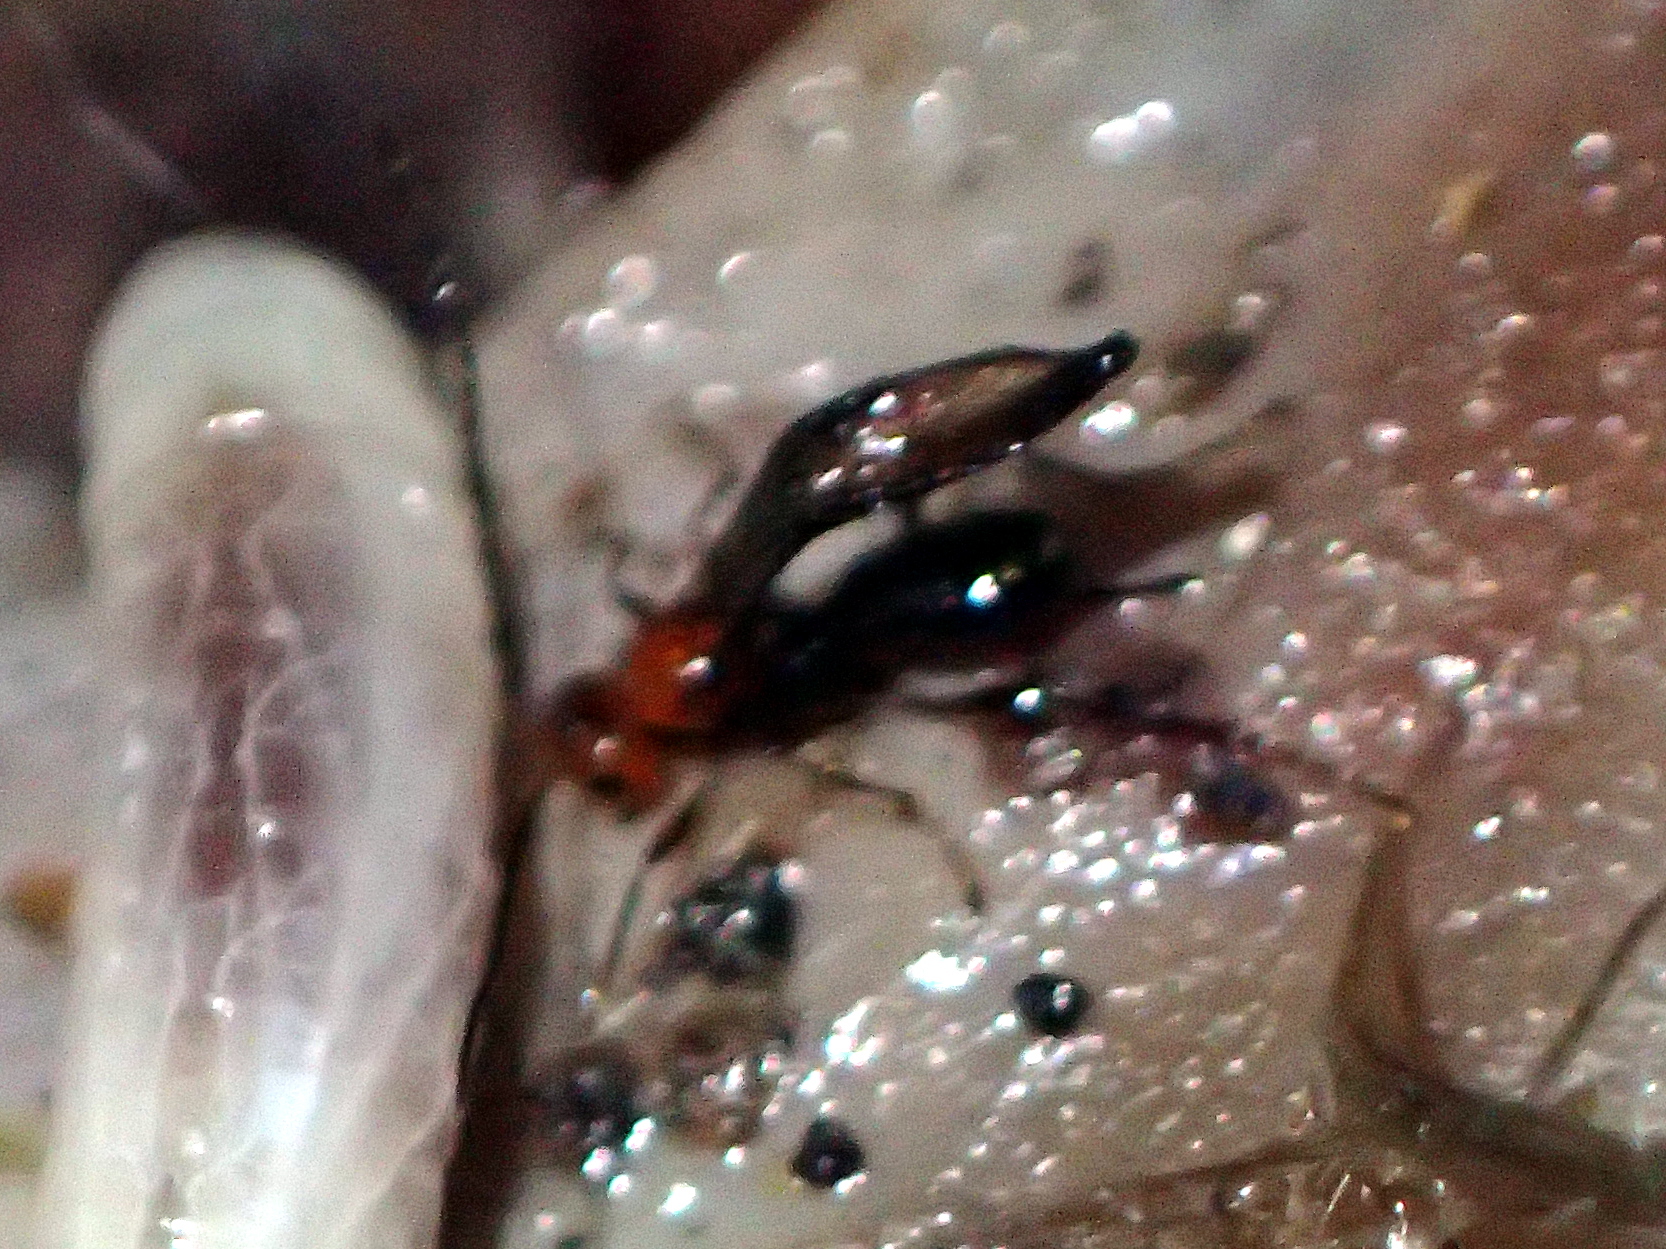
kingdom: Animalia
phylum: Arthropoda
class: Insecta
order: Hymenoptera
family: Braconidae
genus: Asobara
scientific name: Asobara antipoda
